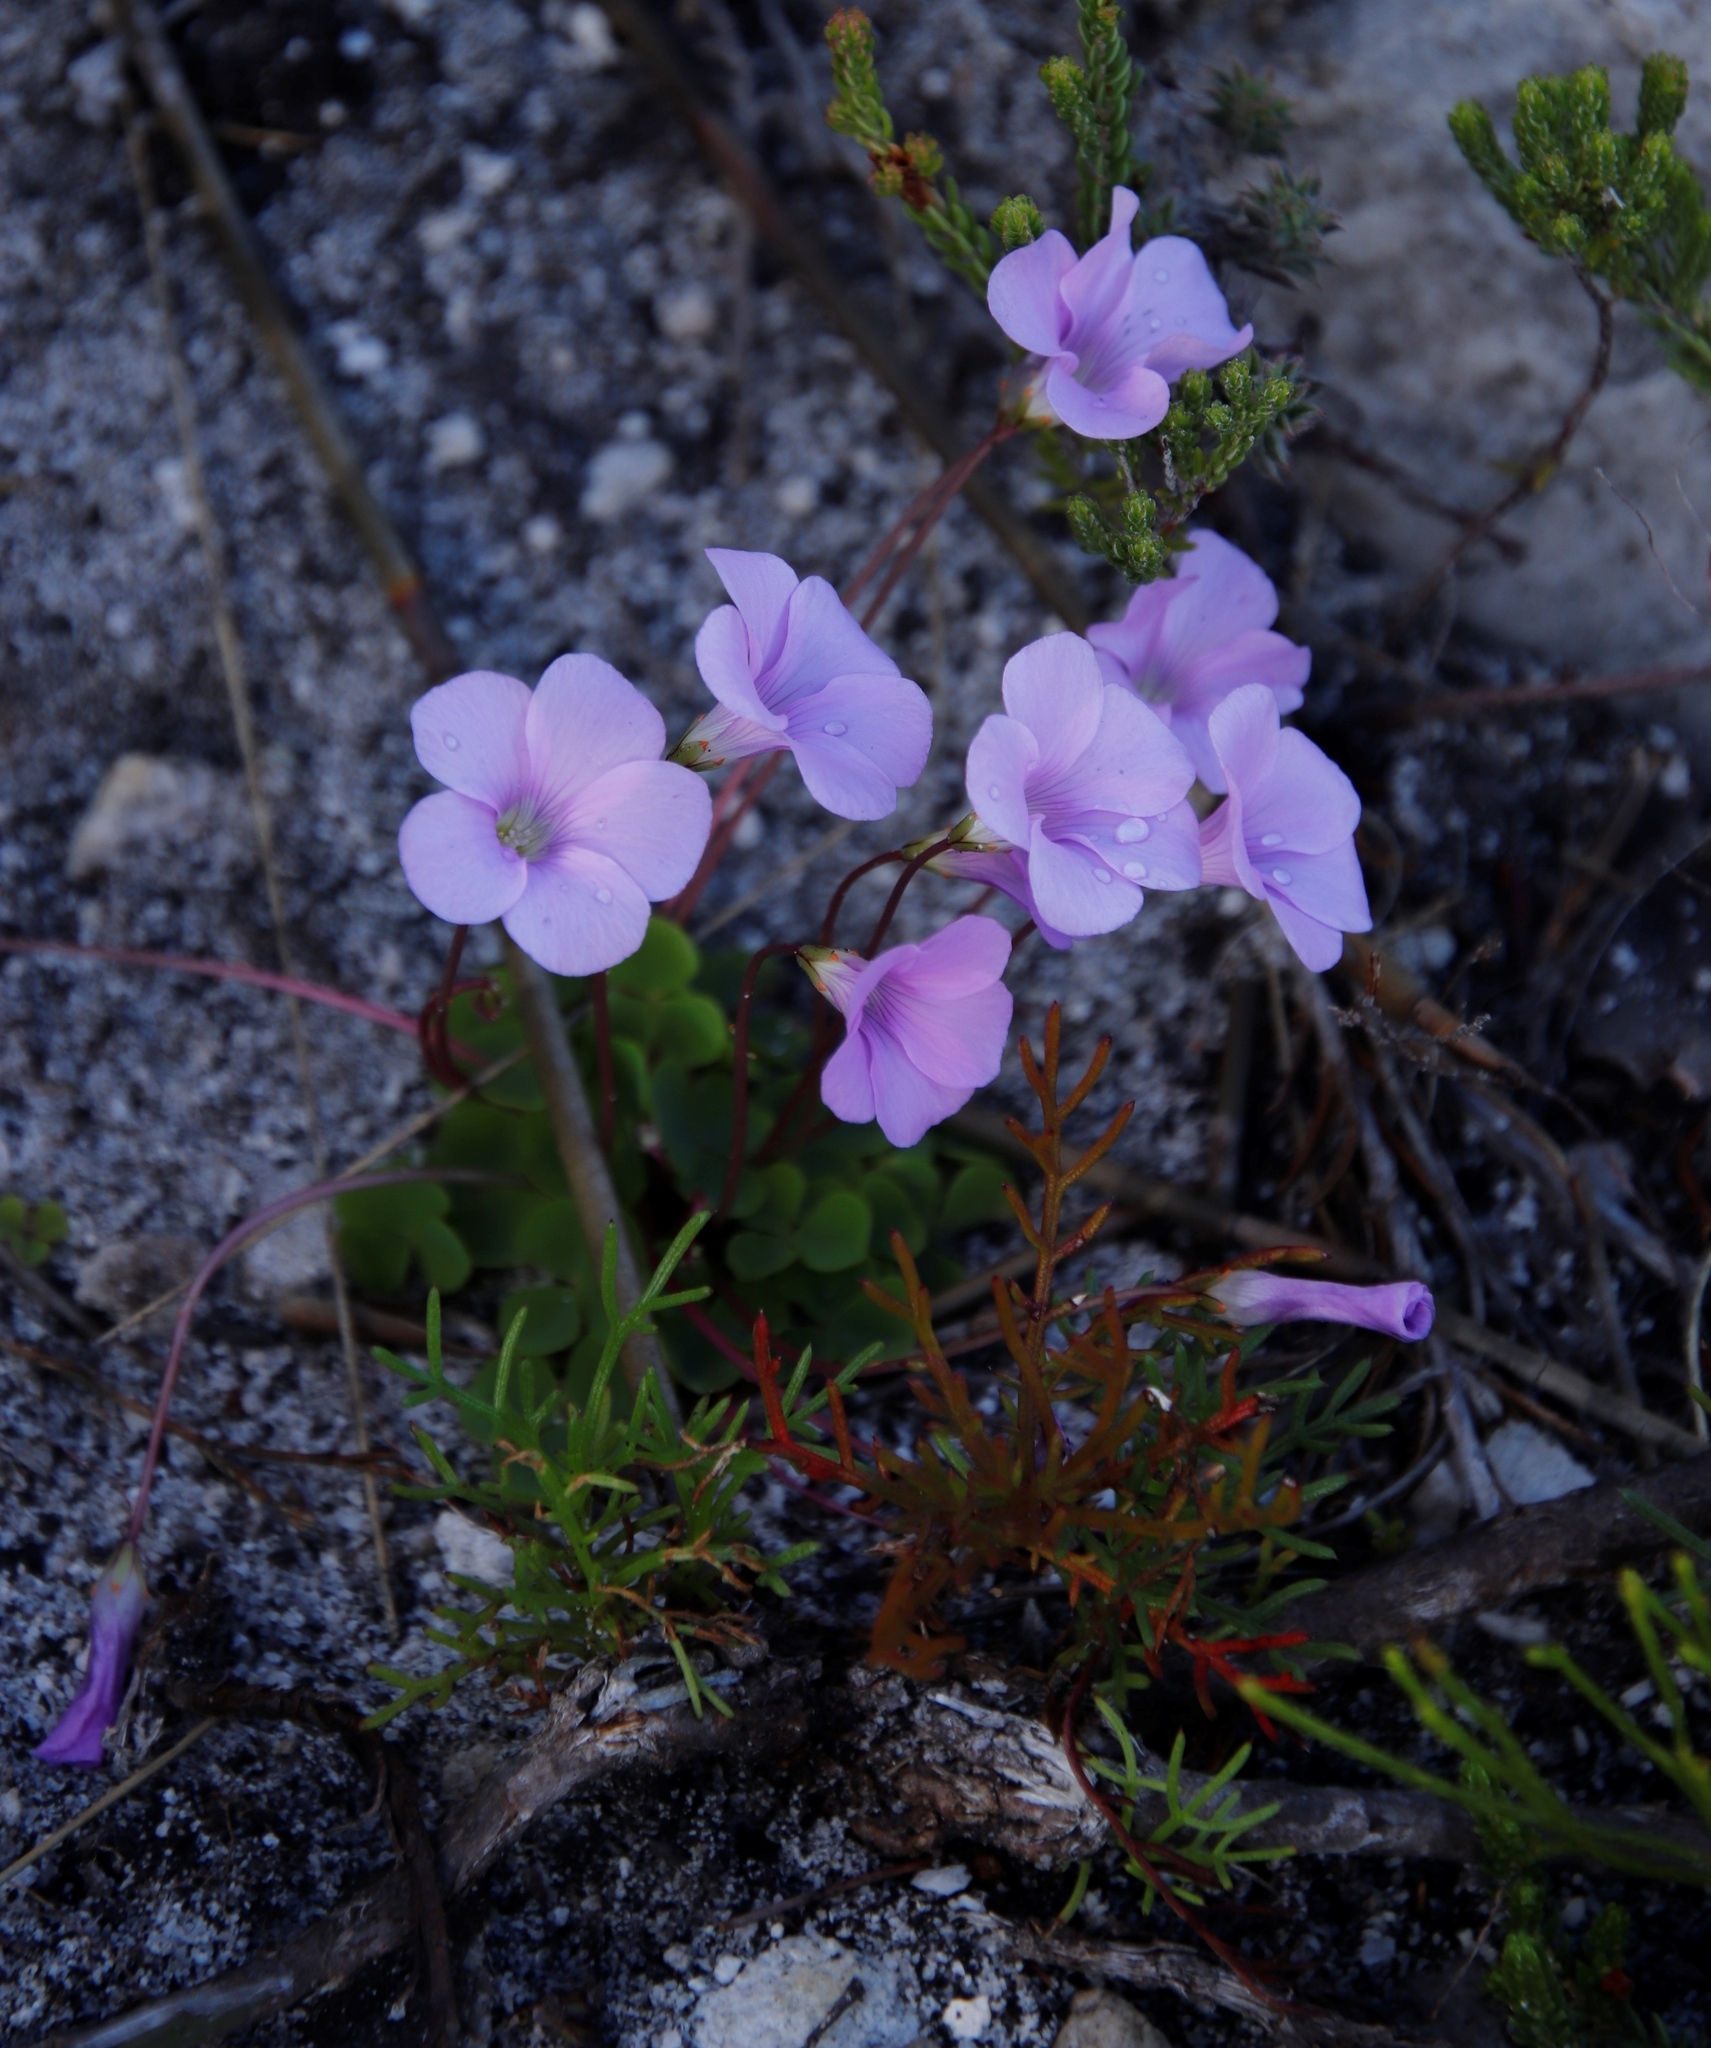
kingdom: Plantae
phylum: Tracheophyta
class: Magnoliopsida
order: Oxalidales
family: Oxalidaceae
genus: Oxalis
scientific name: Oxalis commutata
